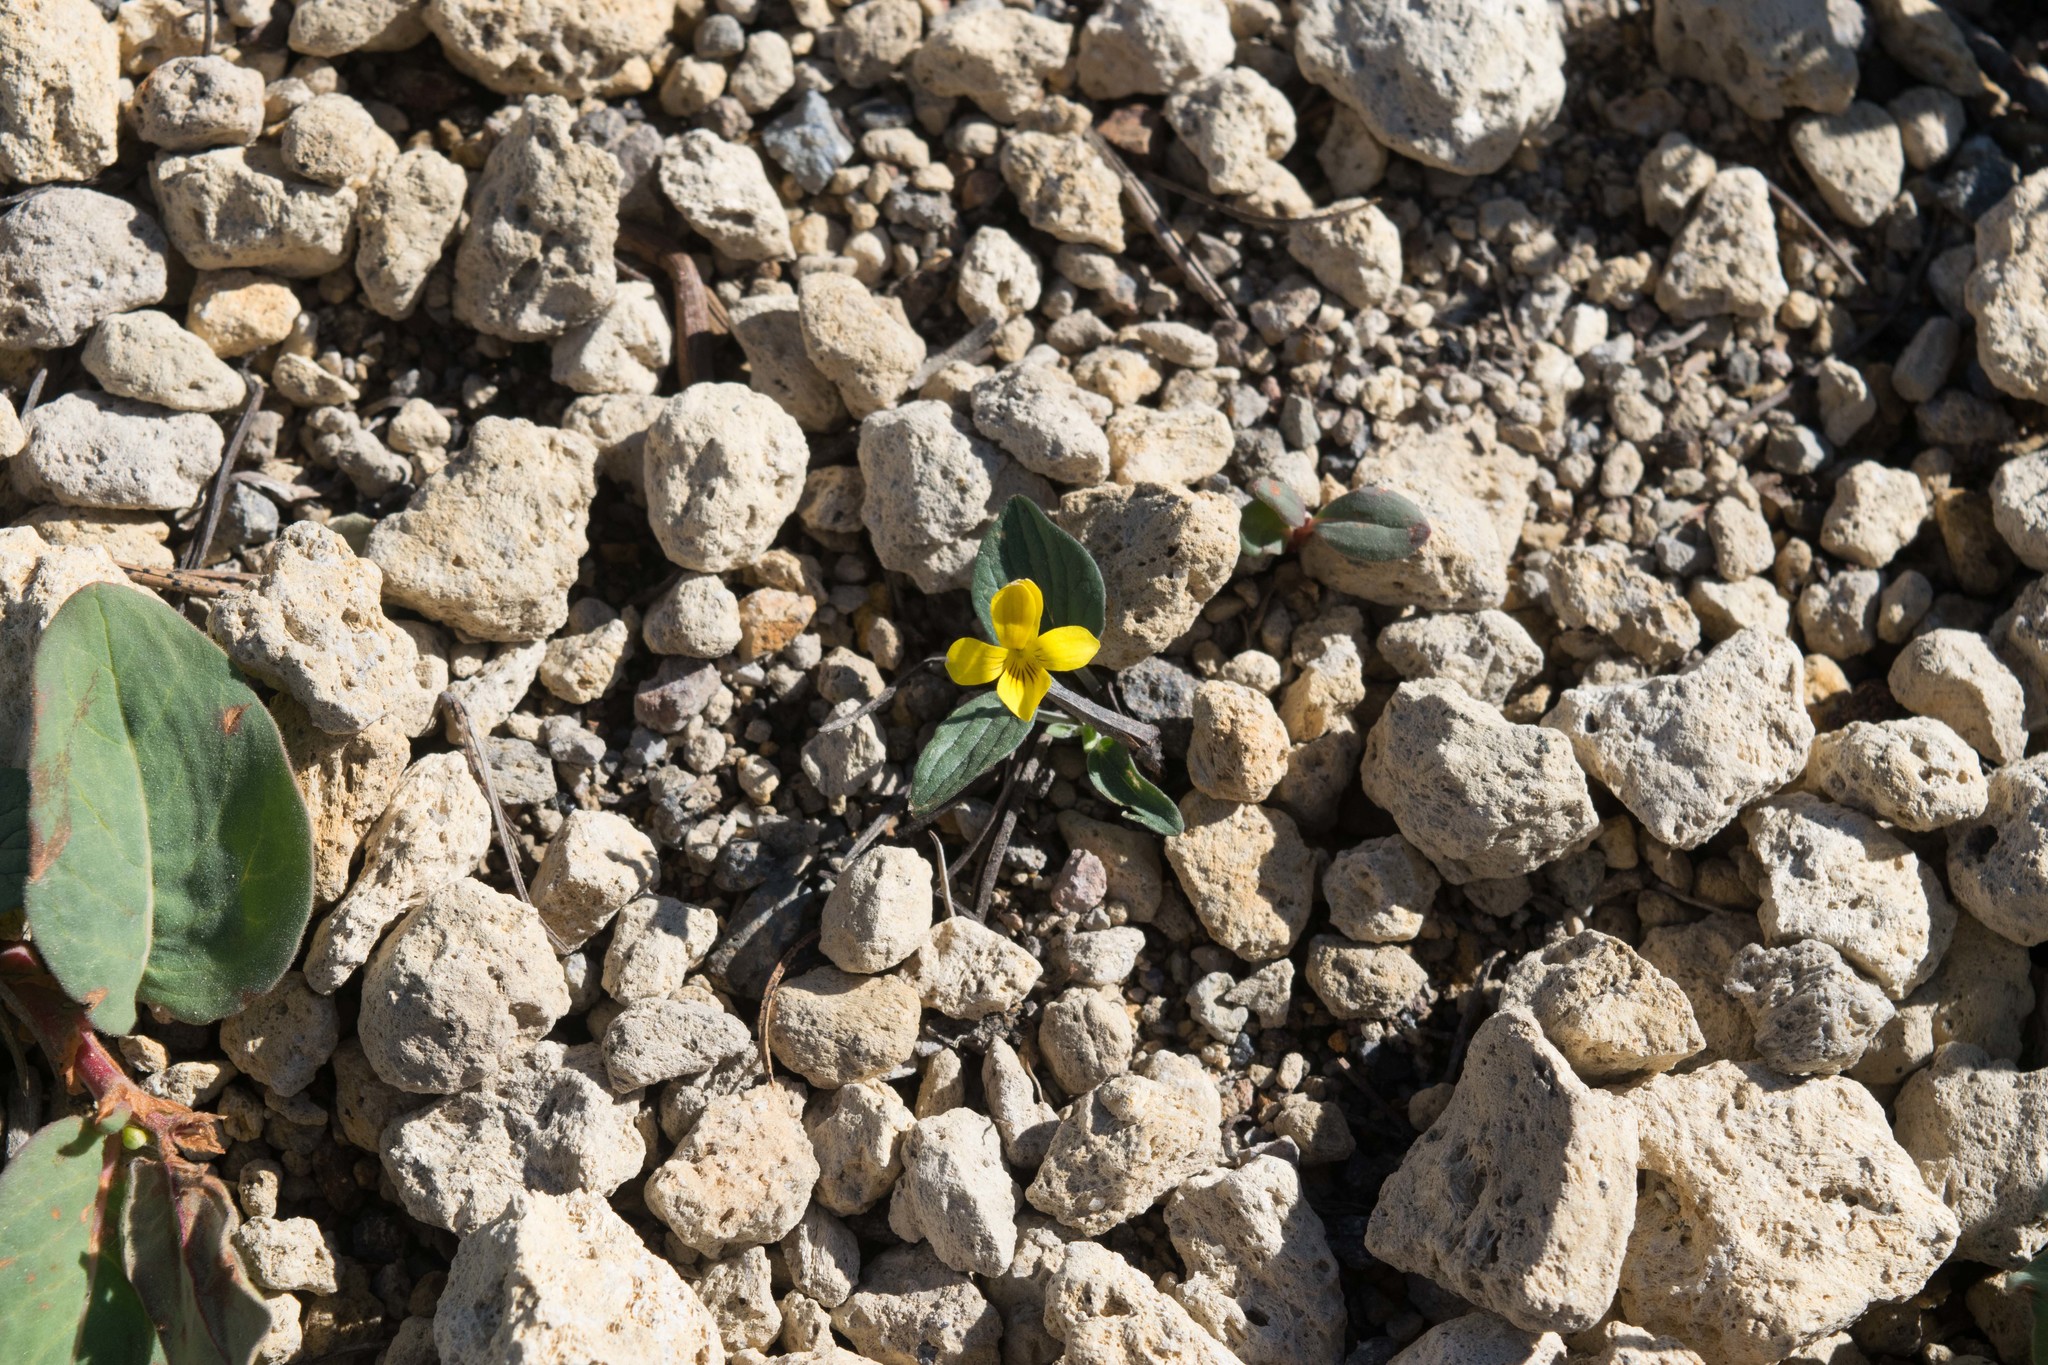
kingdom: Plantae
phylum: Tracheophyta
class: Magnoliopsida
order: Malpighiales
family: Violaceae
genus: Viola
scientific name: Viola purpurea
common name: Pine violet
